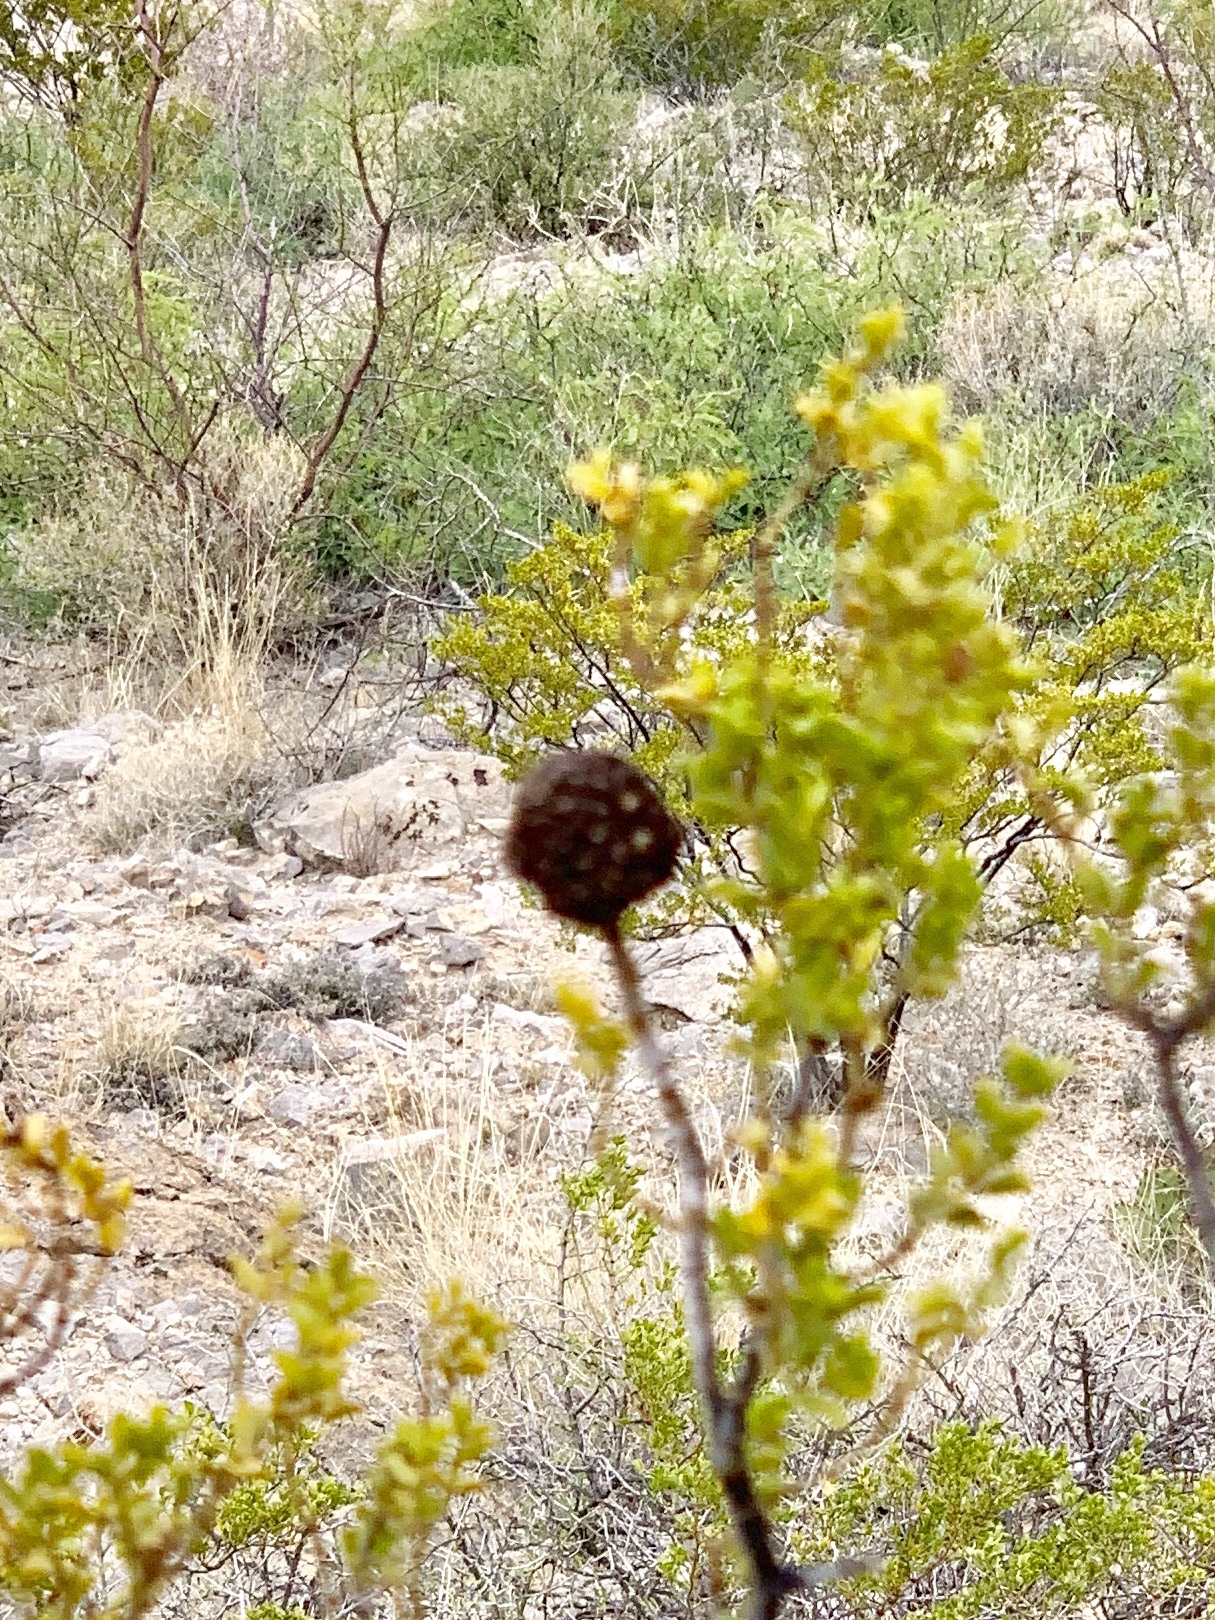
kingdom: Animalia
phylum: Arthropoda
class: Insecta
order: Diptera
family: Cecidomyiidae
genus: Asphondylia
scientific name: Asphondylia auripila
